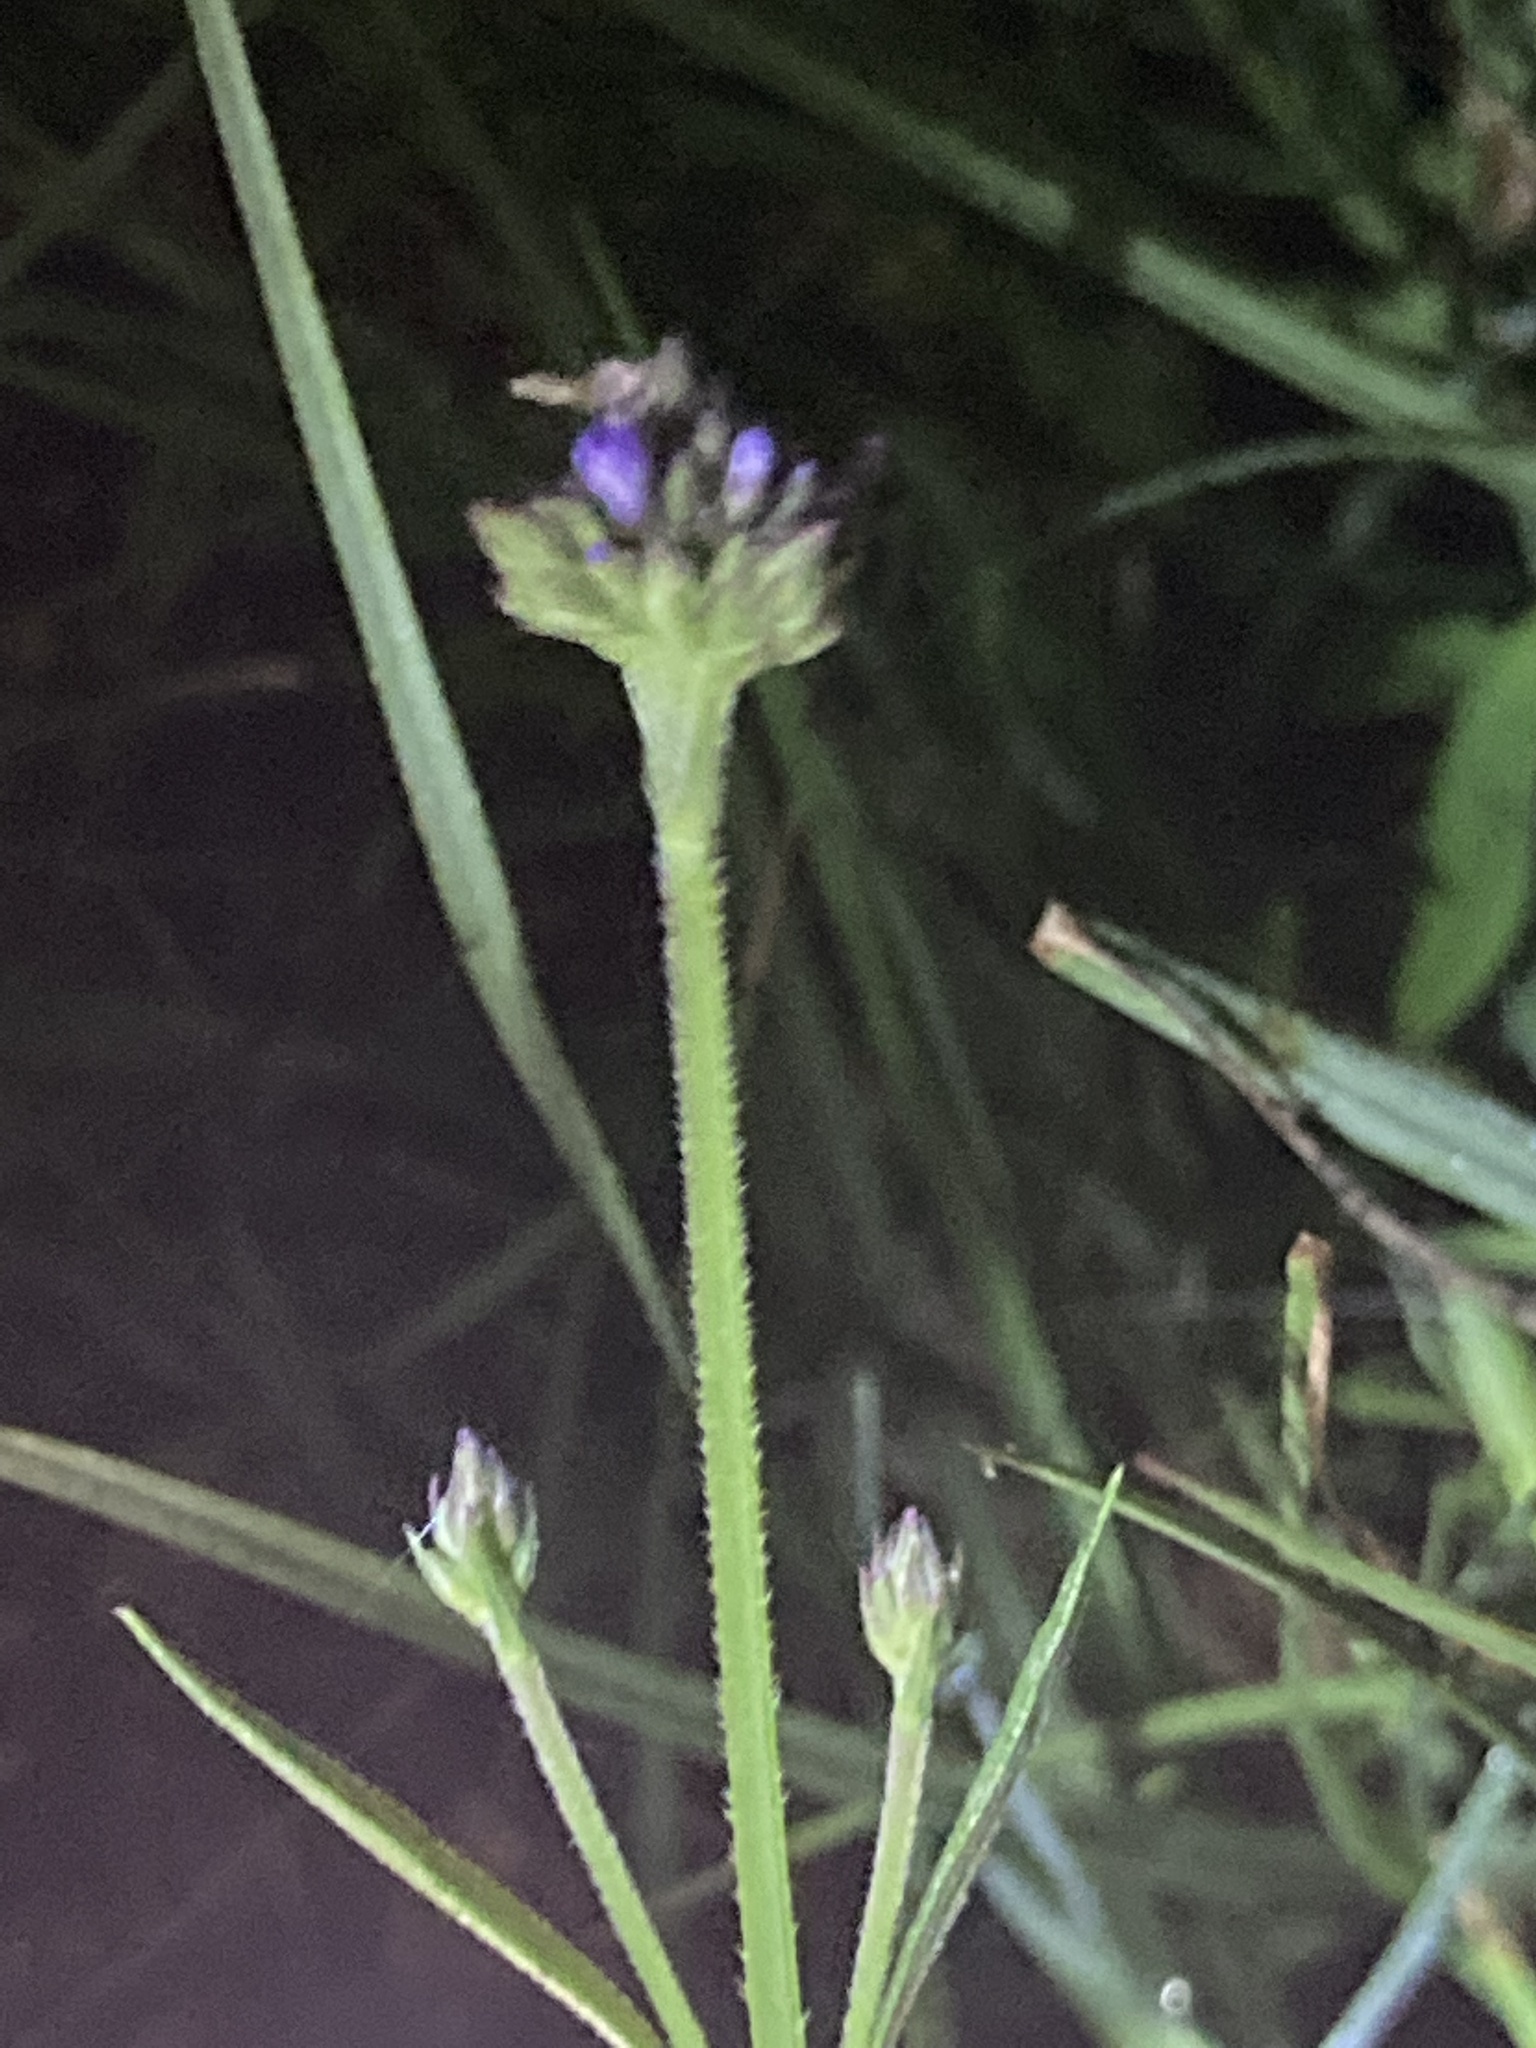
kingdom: Plantae
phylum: Tracheophyta
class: Magnoliopsida
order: Lamiales
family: Verbenaceae
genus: Verbena
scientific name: Verbena brasiliensis
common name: Brazilian vervain
